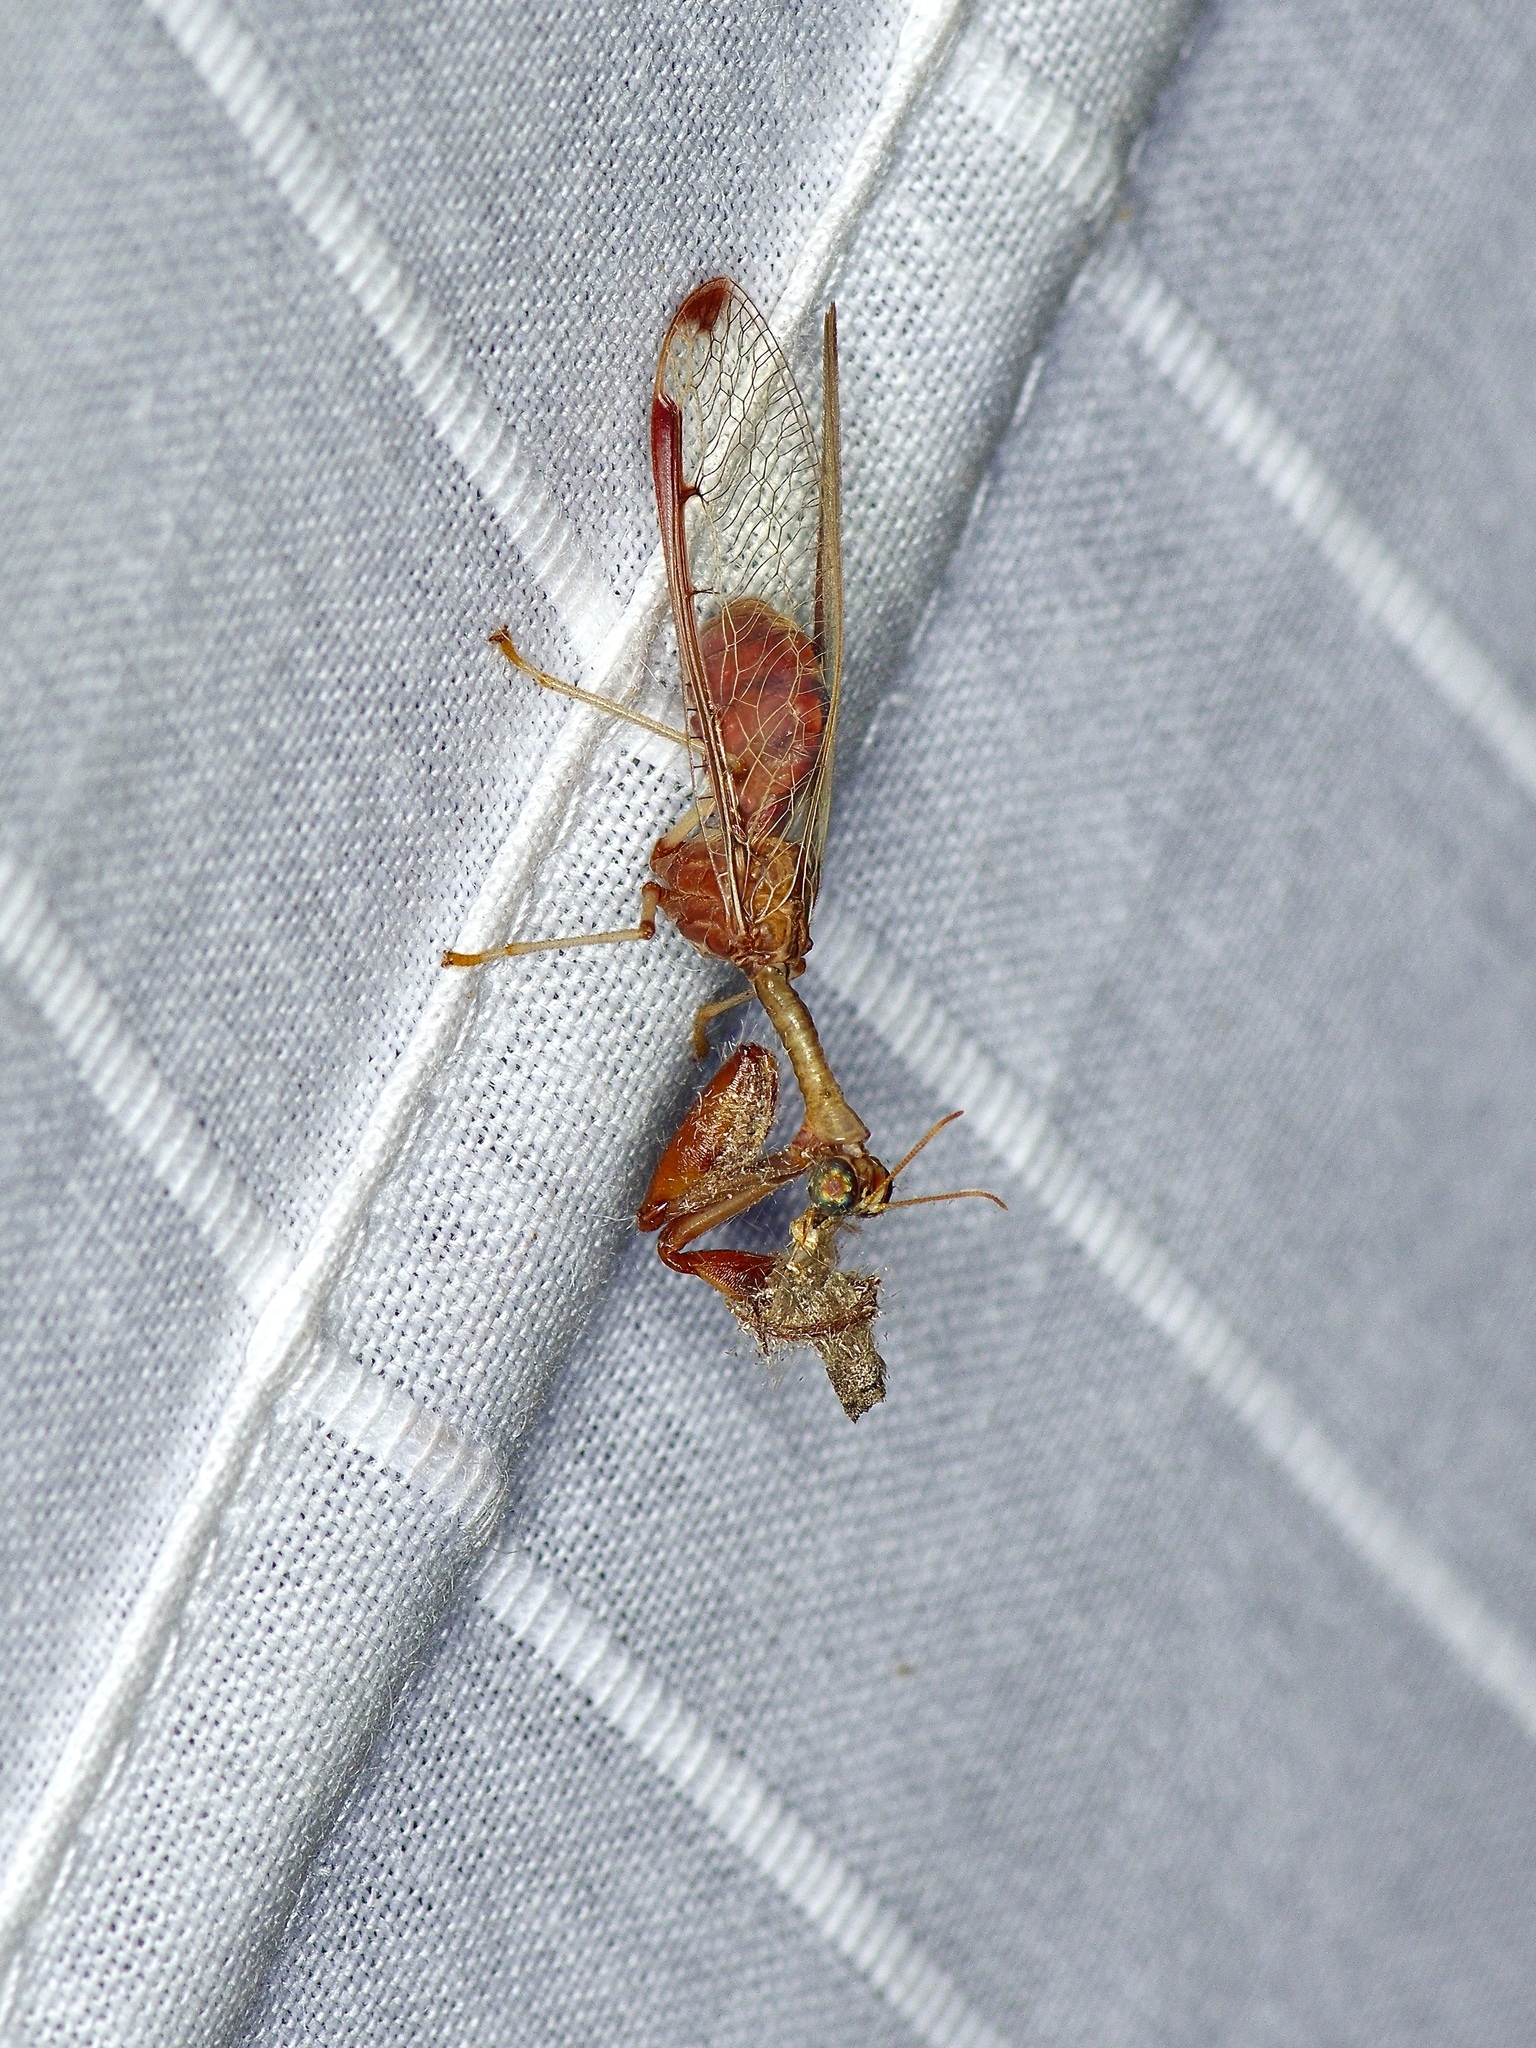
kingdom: Animalia
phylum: Arthropoda
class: Insecta
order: Neuroptera
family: Mantispidae
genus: Dicromantispa
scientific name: Dicromantispa interrupta
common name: Four-spotted mantidfly
